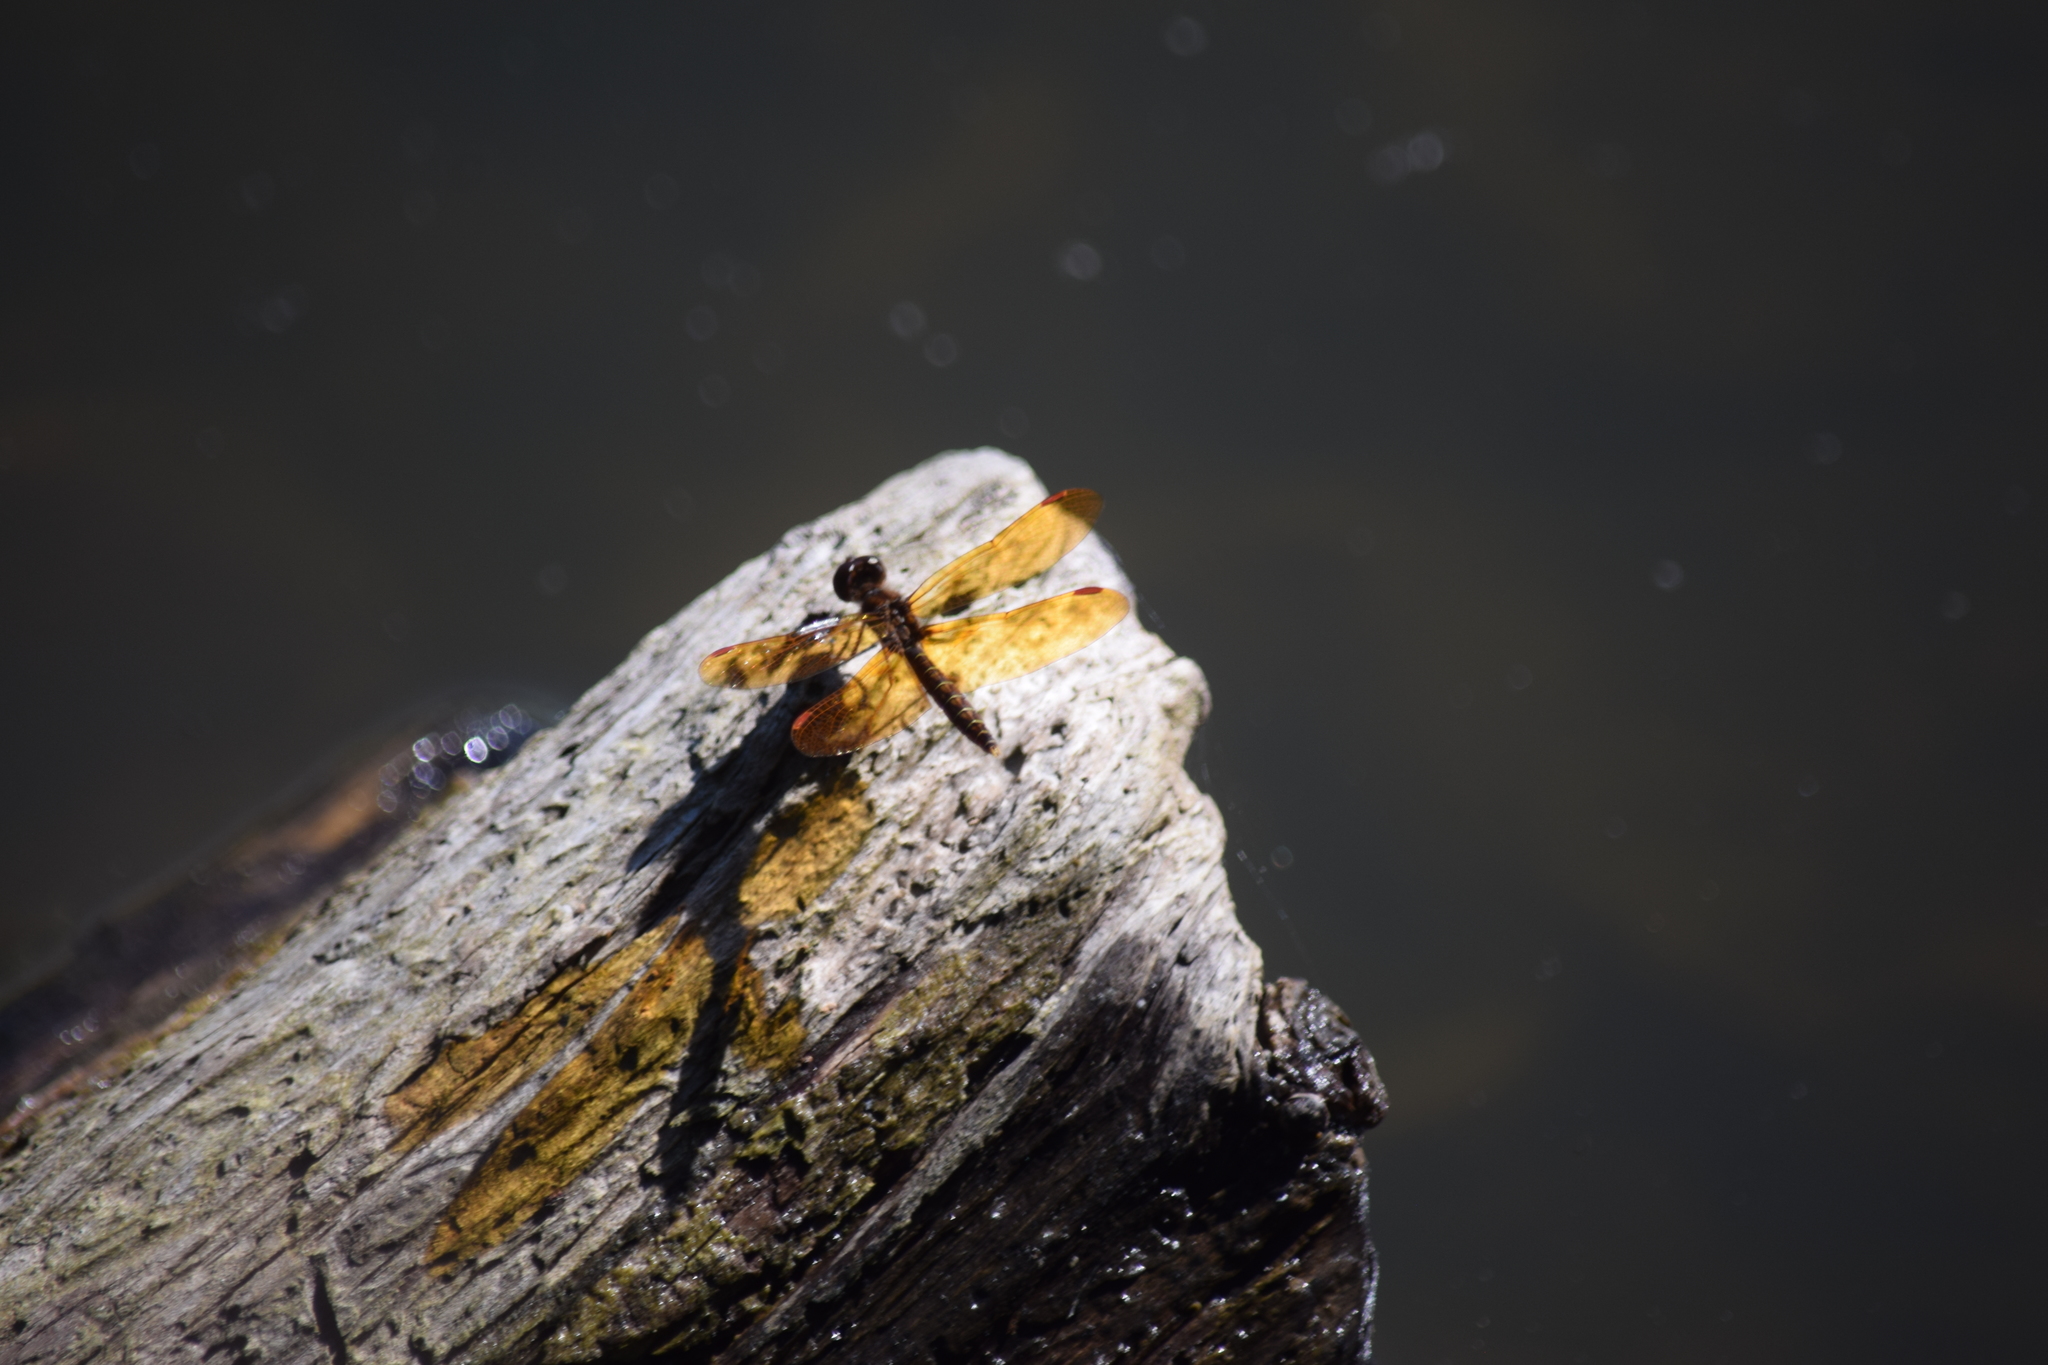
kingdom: Animalia
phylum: Arthropoda
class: Insecta
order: Odonata
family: Libellulidae
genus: Perithemis
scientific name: Perithemis tenera
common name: Eastern amberwing
